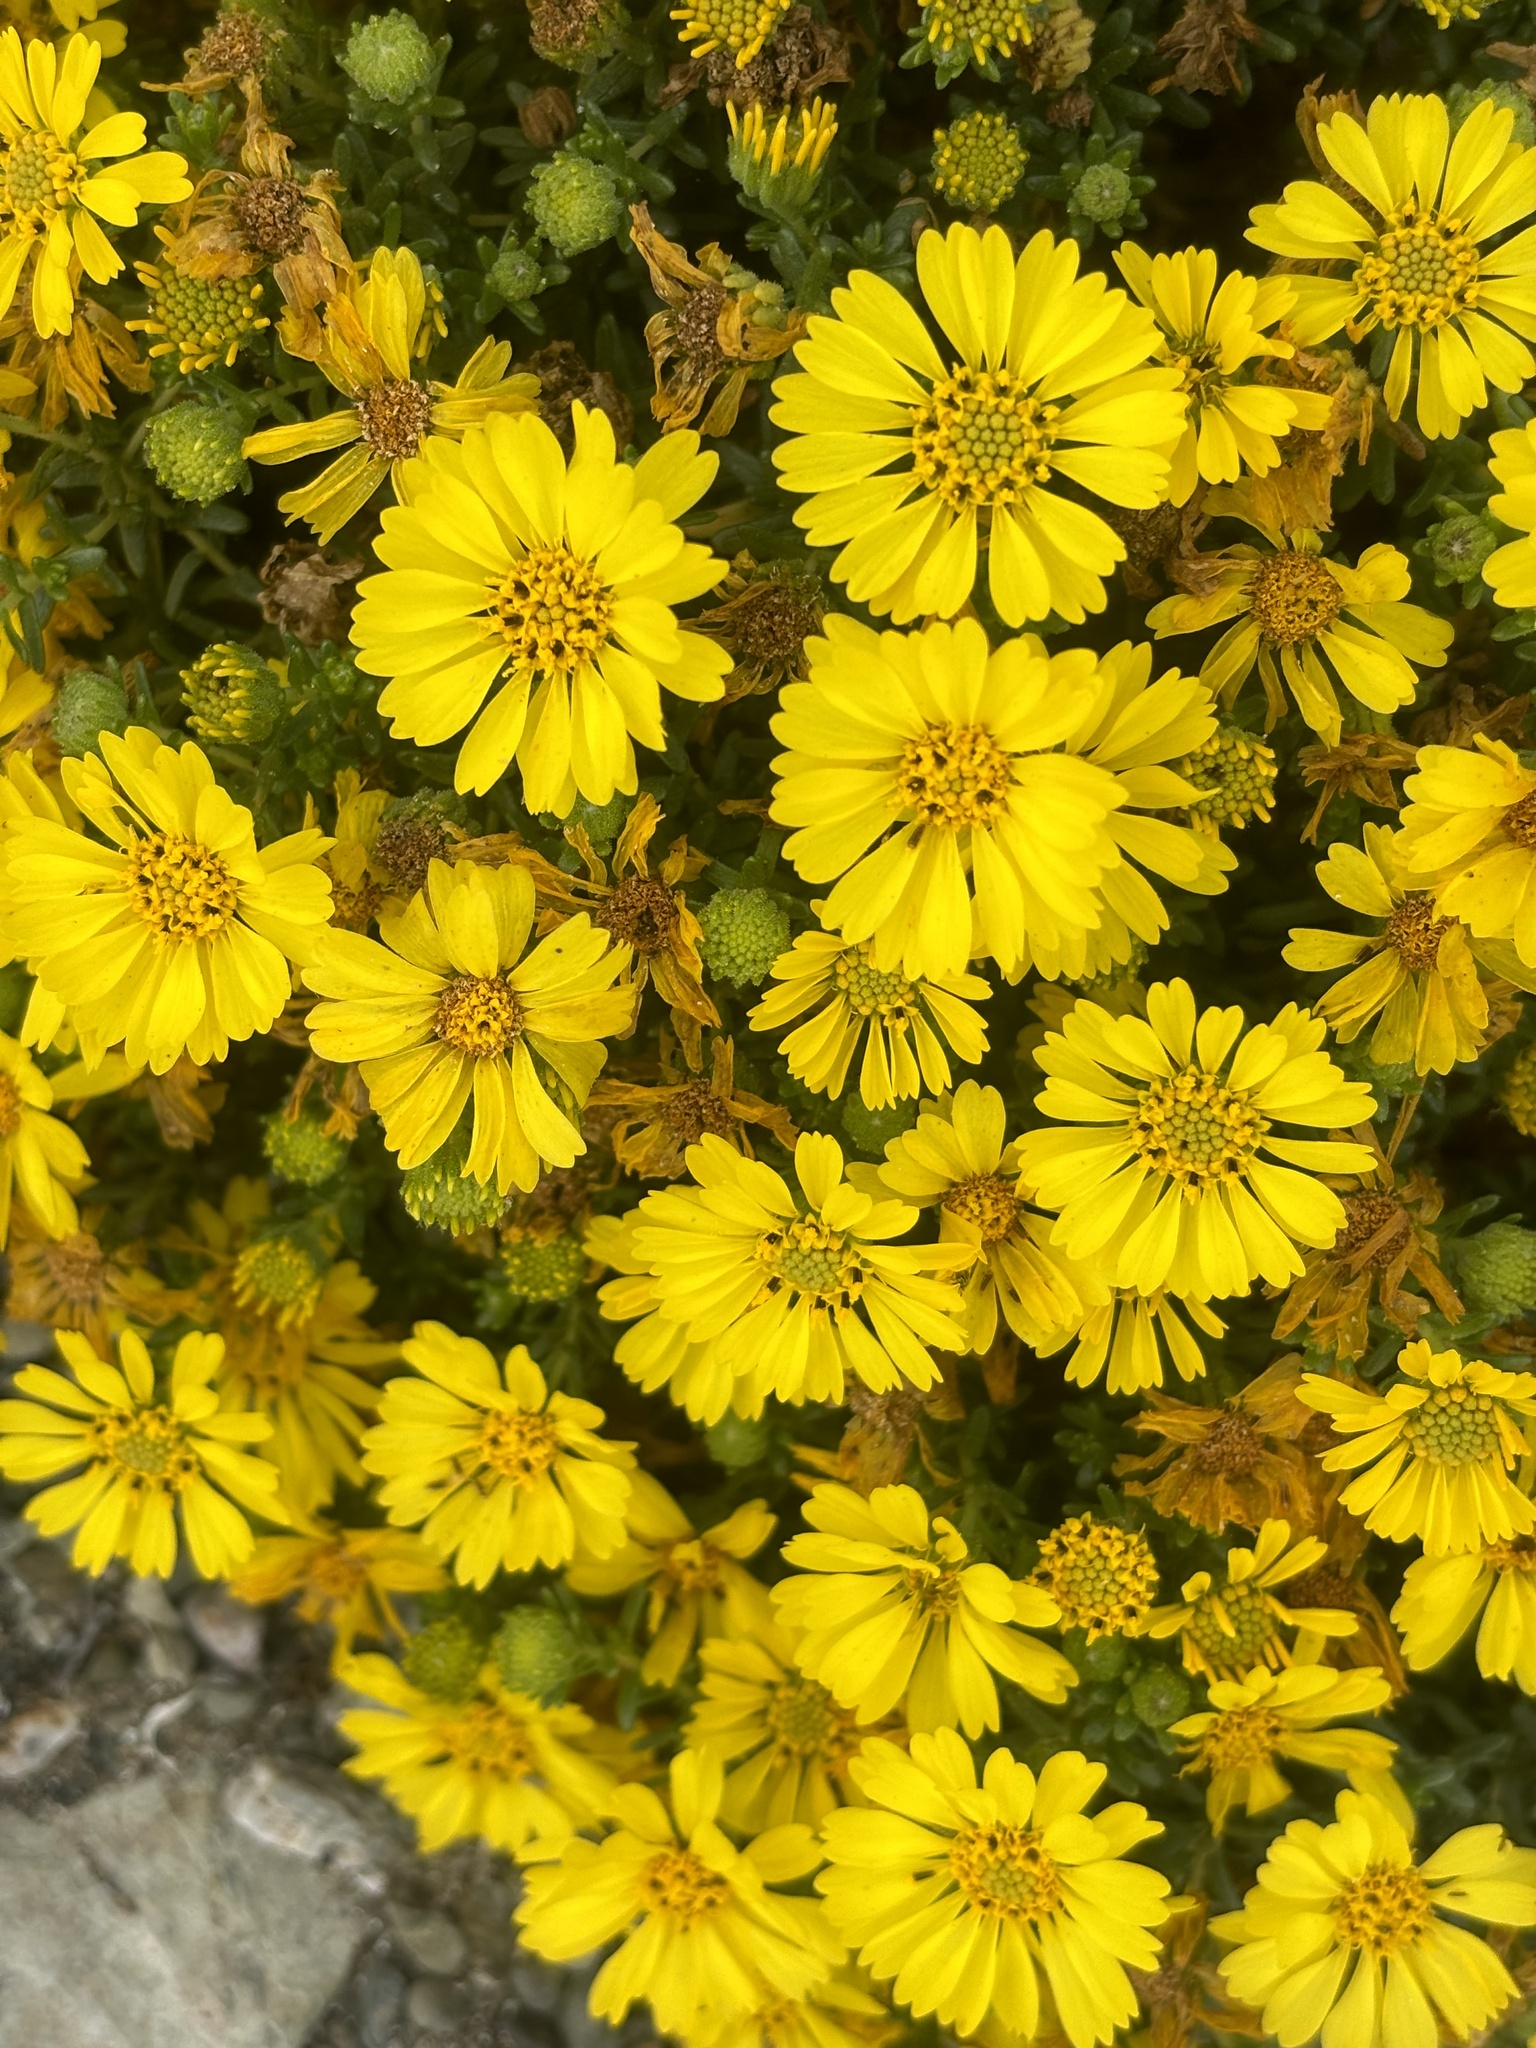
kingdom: Plantae
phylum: Tracheophyta
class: Magnoliopsida
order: Asterales
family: Asteraceae
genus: Deinandra
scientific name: Deinandra streetsii
